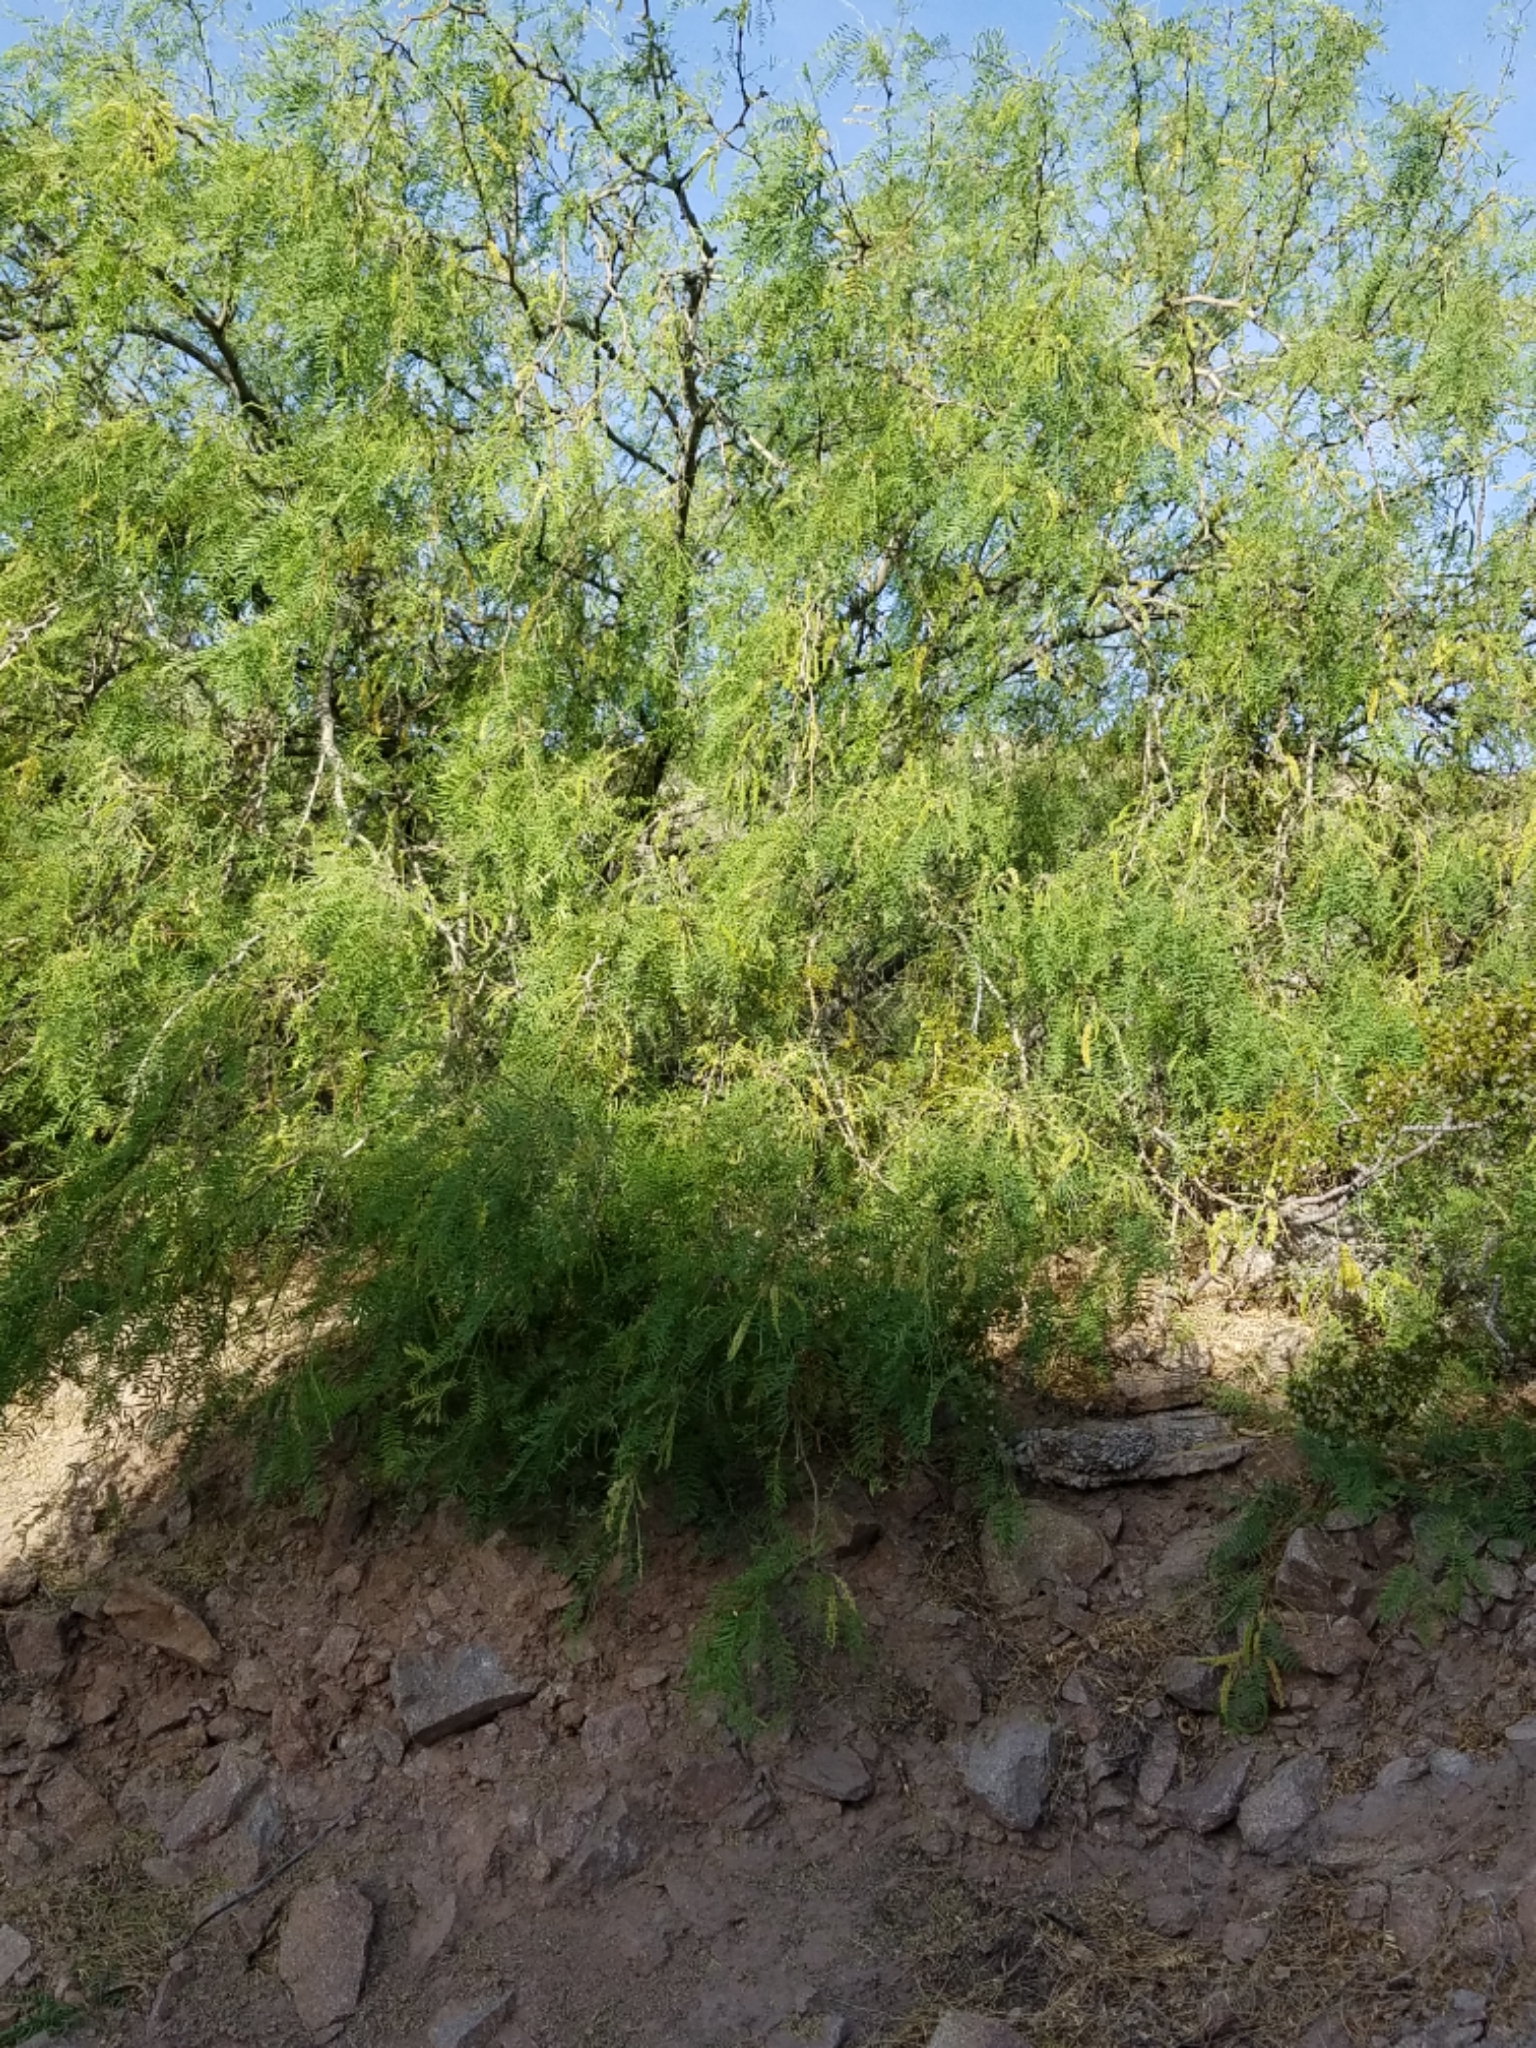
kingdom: Plantae
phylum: Tracheophyta
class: Magnoliopsida
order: Fabales
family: Fabaceae
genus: Prosopis
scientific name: Prosopis glandulosa
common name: Honey mesquite
